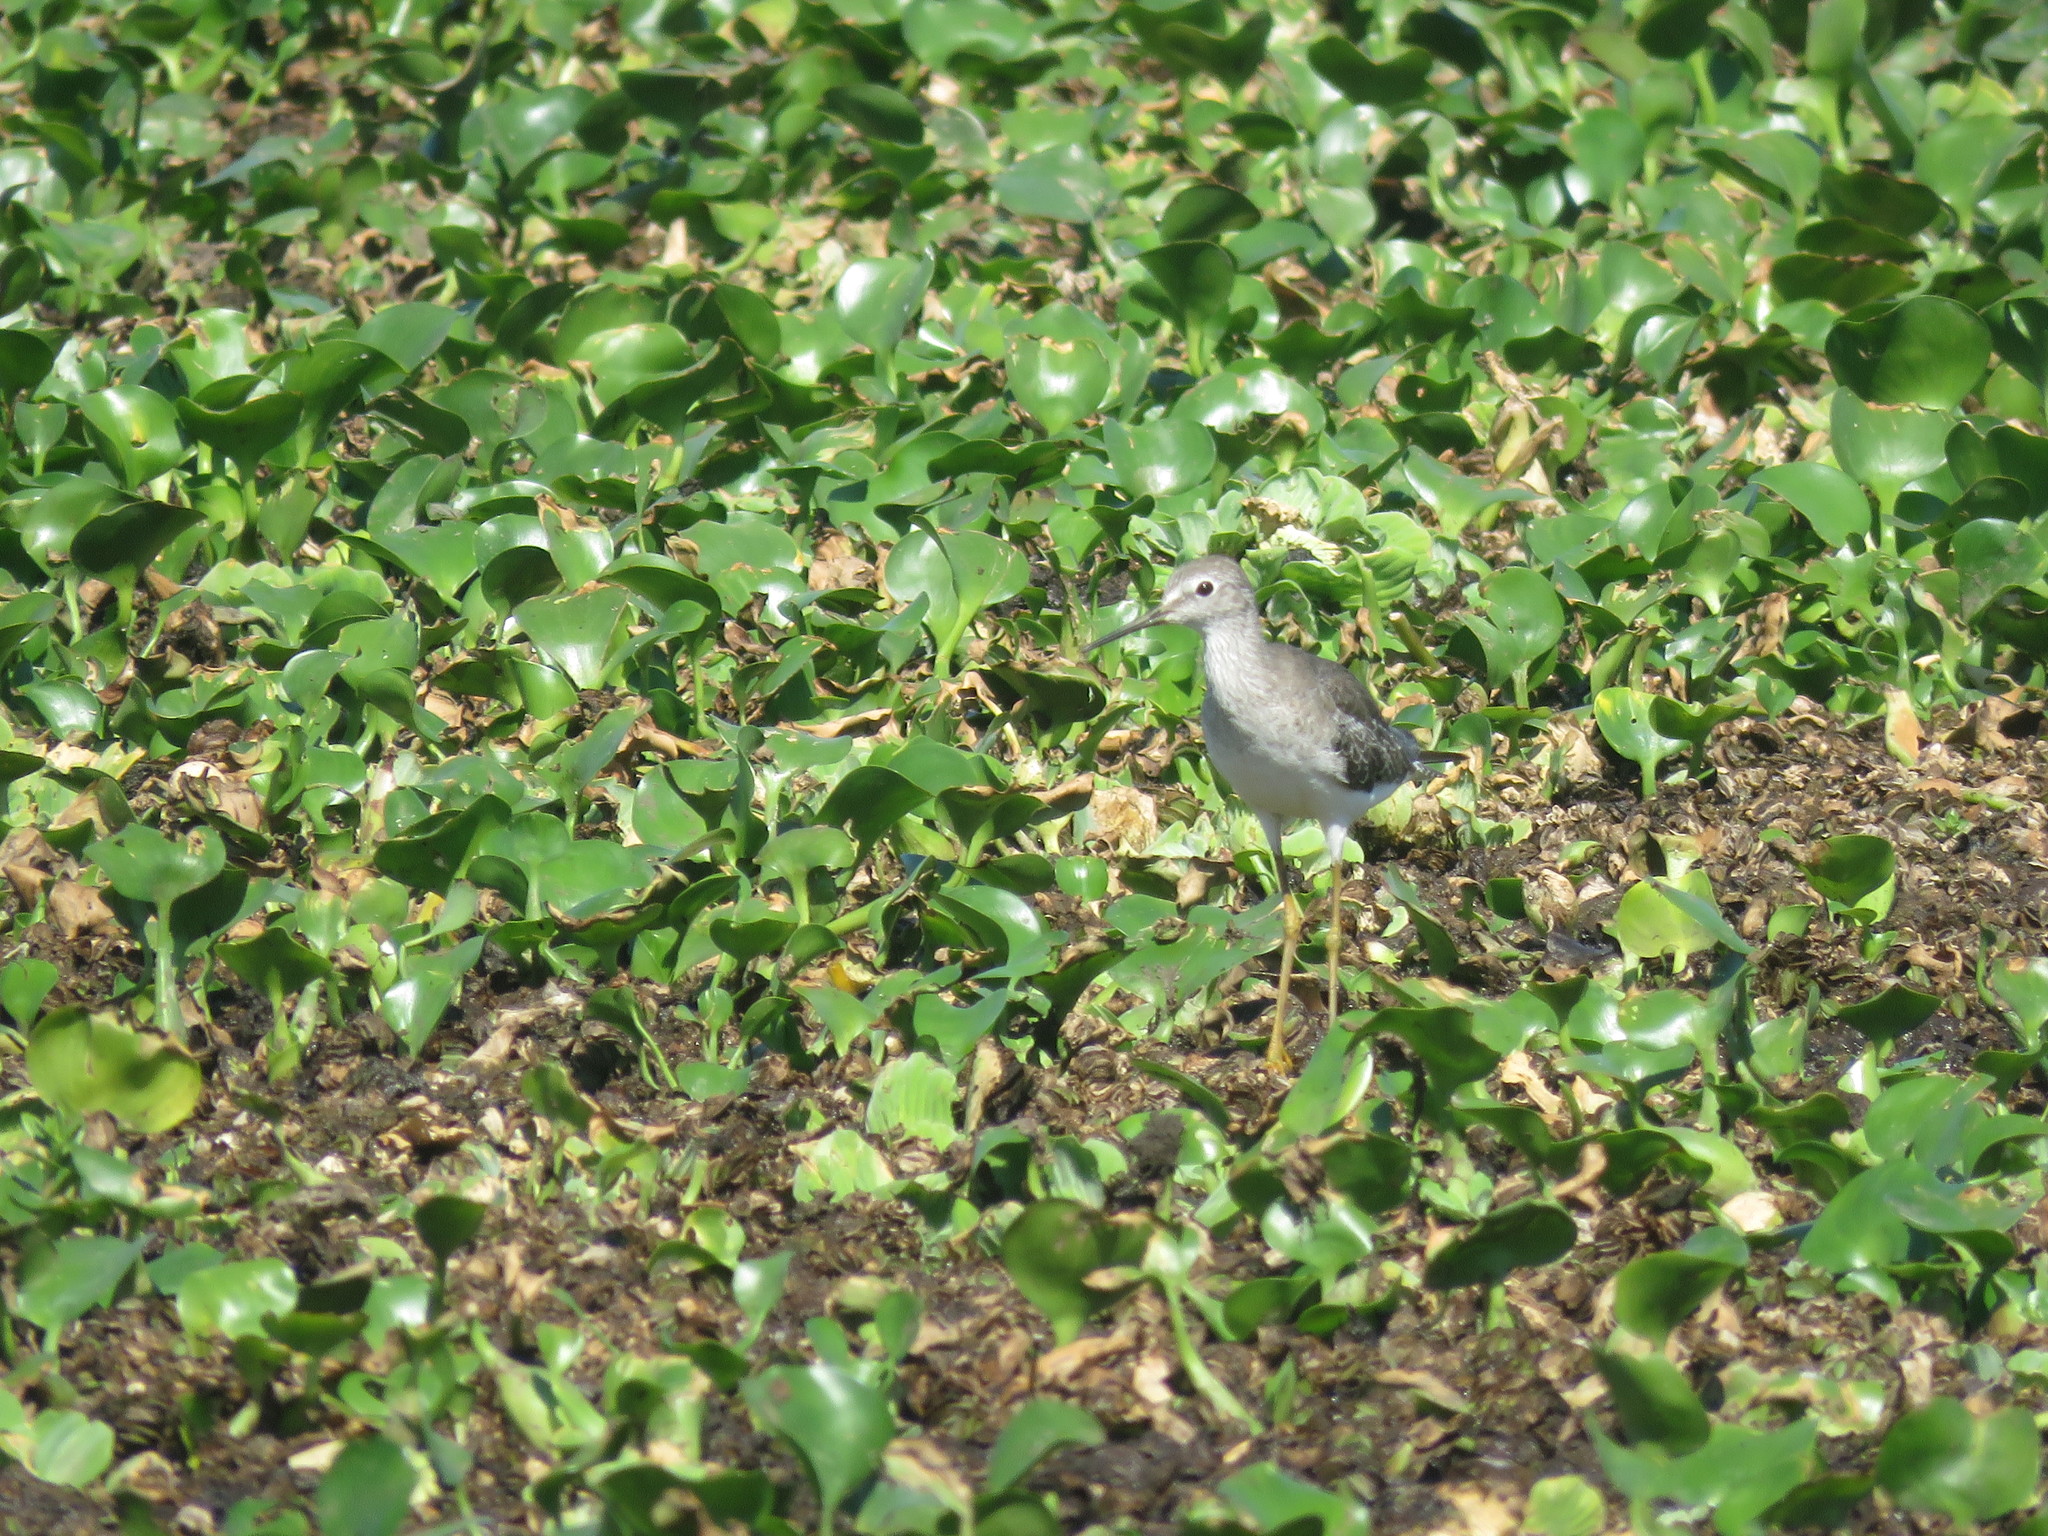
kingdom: Animalia
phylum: Chordata
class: Aves
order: Charadriiformes
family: Scolopacidae
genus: Tringa
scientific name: Tringa flavipes
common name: Lesser yellowlegs
